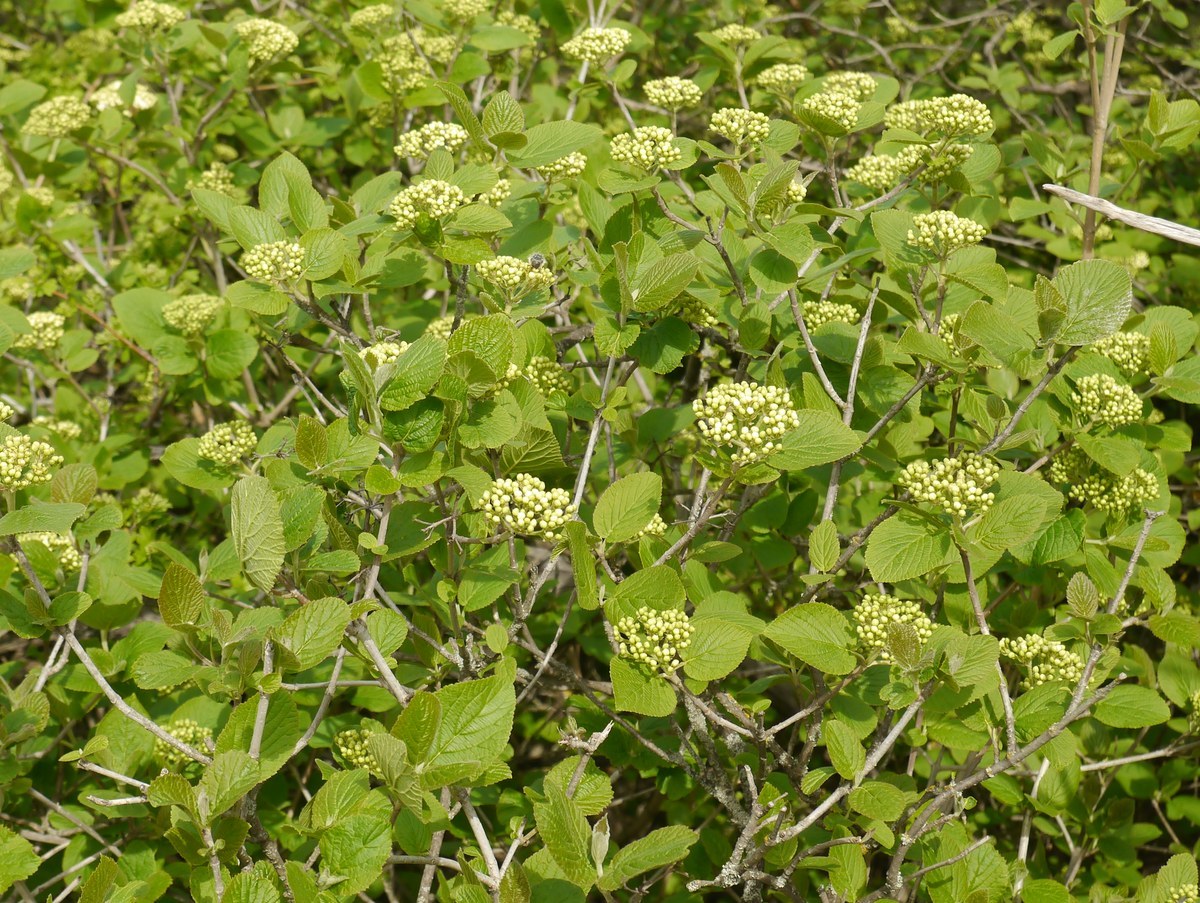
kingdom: Plantae
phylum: Tracheophyta
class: Magnoliopsida
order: Dipsacales
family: Viburnaceae
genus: Viburnum
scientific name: Viburnum lantana
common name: Wayfaring tree
